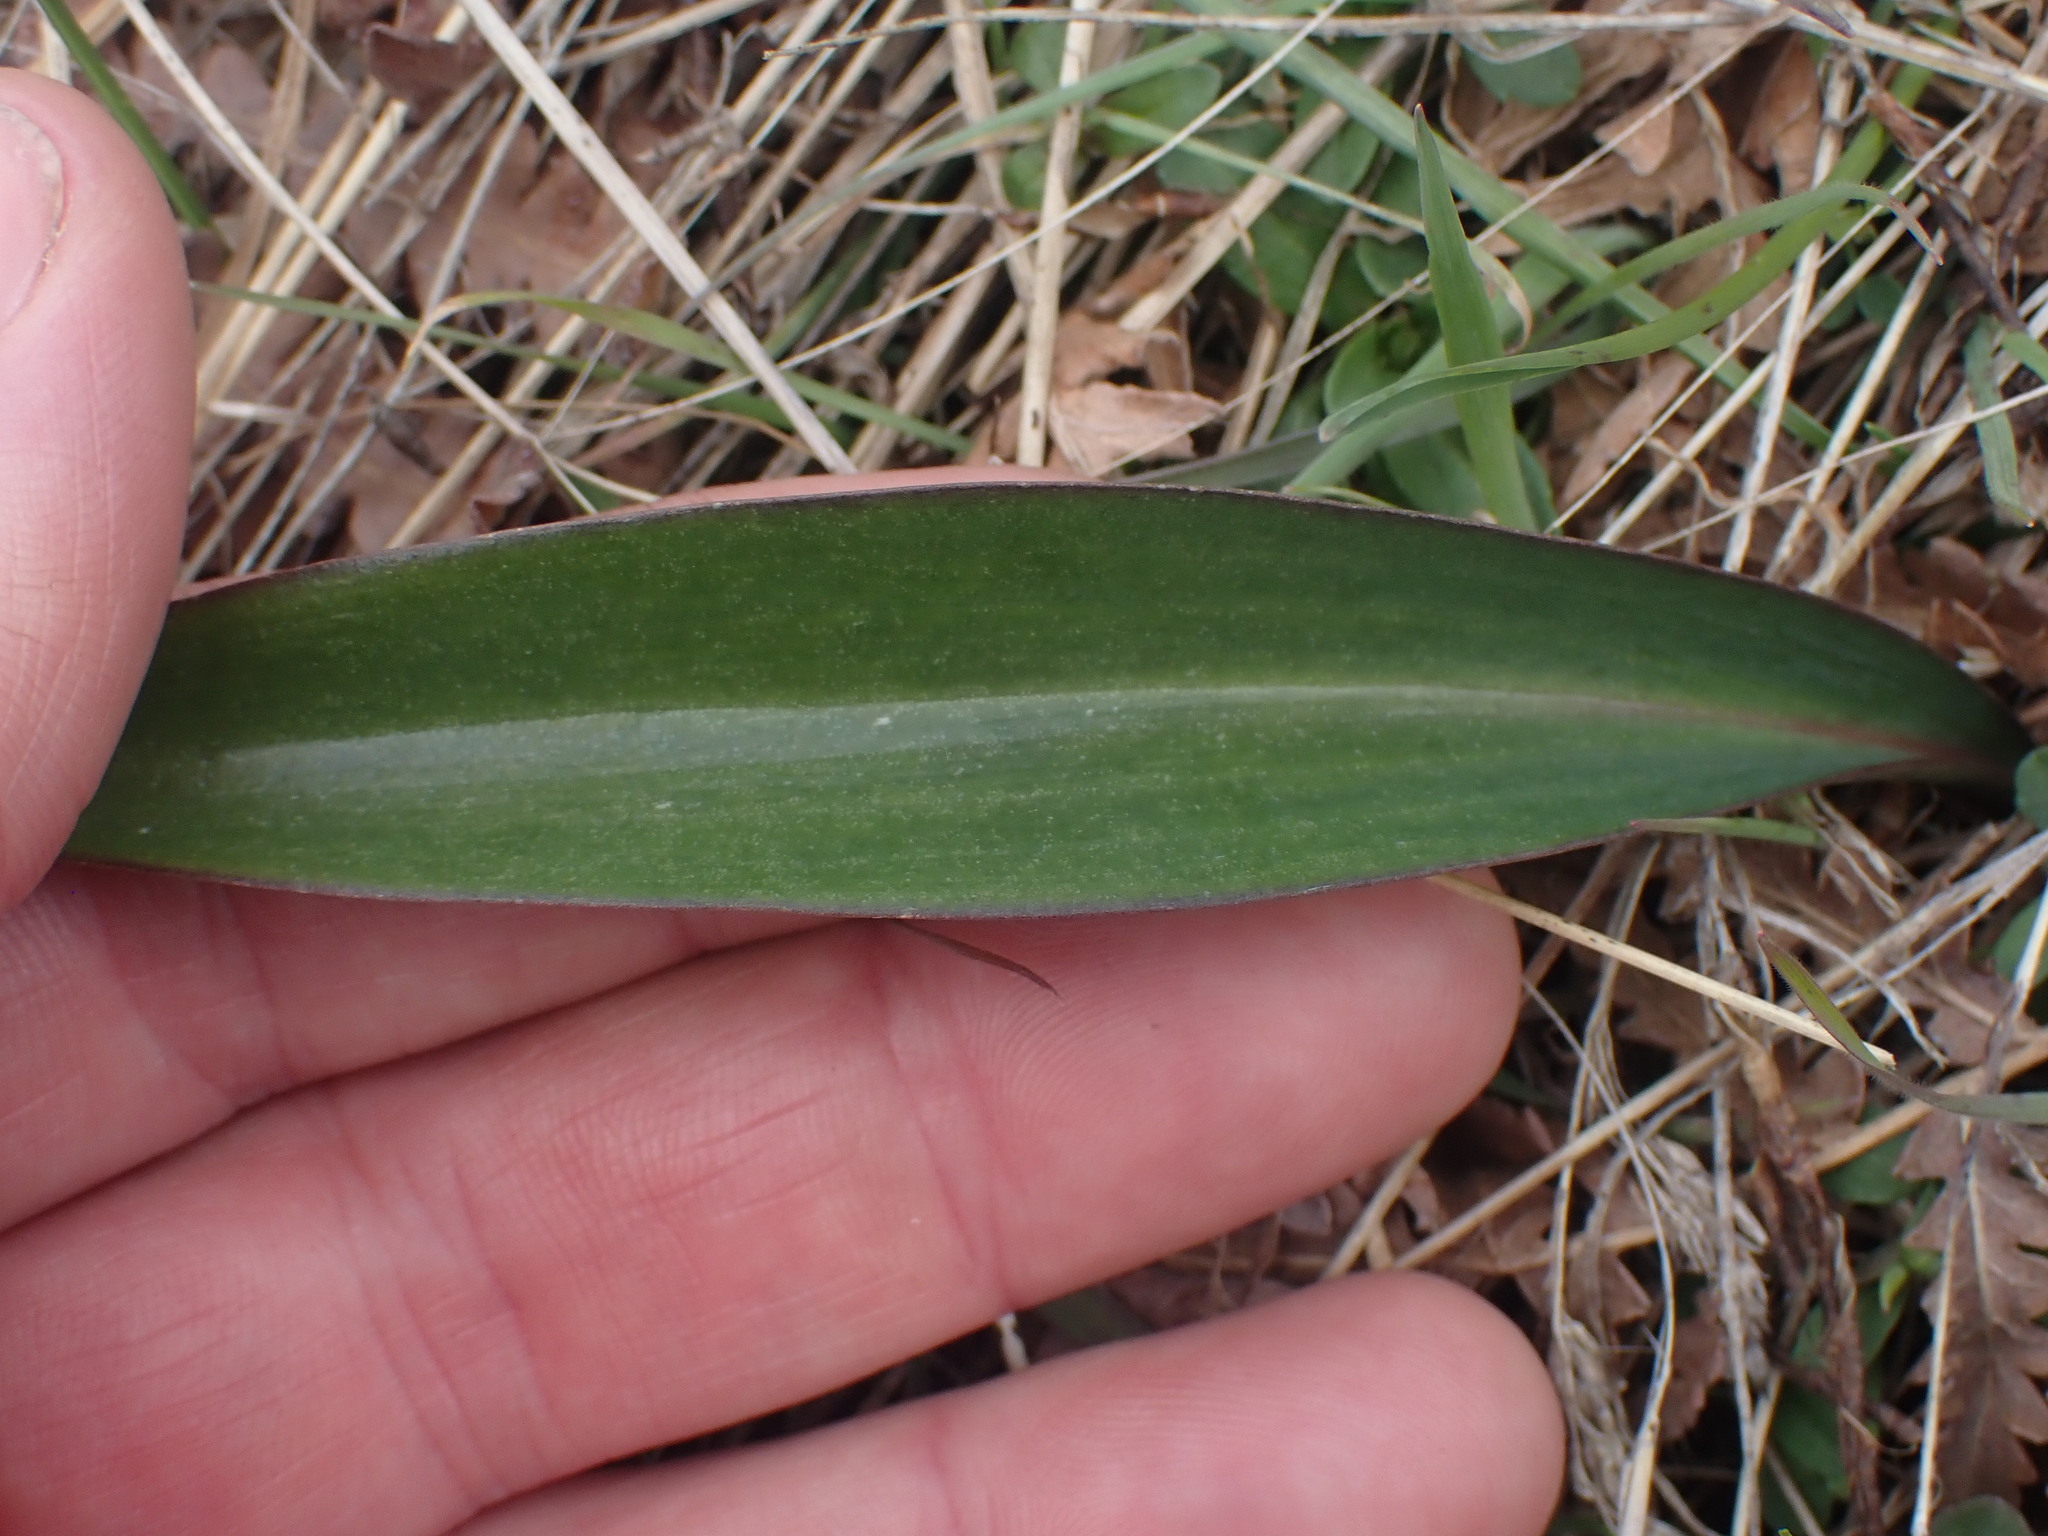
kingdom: Plantae
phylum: Tracheophyta
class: Liliopsida
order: Liliales
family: Liliaceae
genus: Fritillaria
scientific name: Fritillaria affinis
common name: Ojai fritillary
